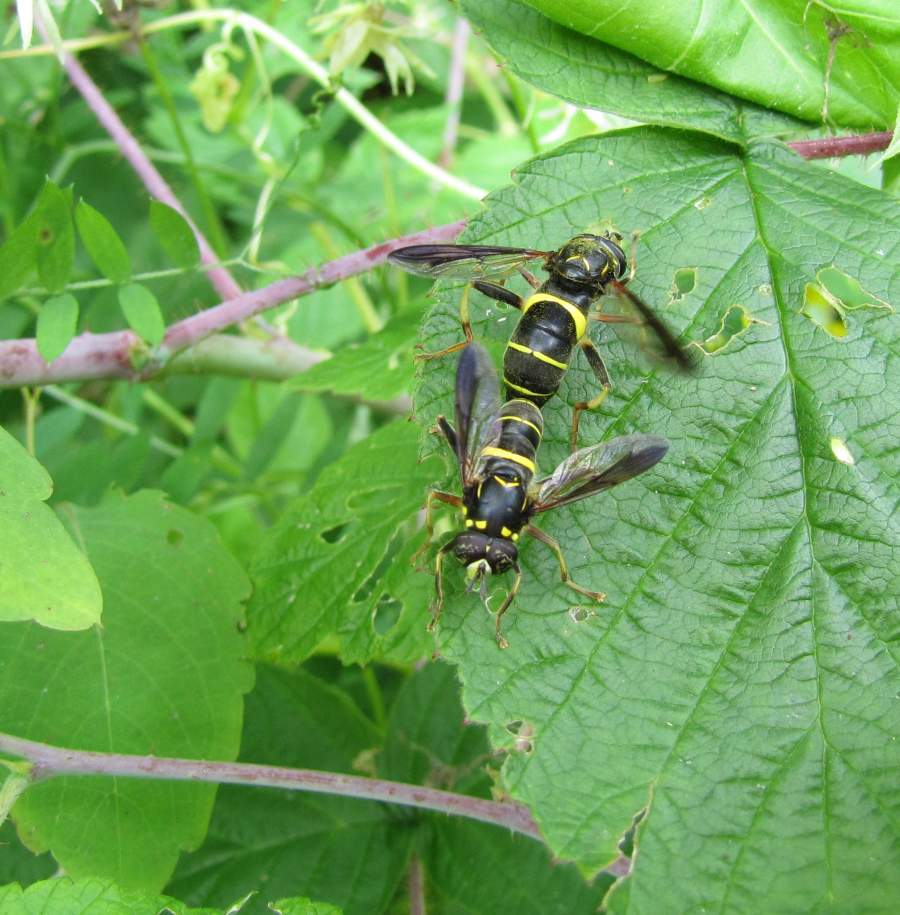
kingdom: Animalia
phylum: Arthropoda
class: Insecta
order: Diptera
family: Syrphidae
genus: Spilomyia
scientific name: Spilomyia sayi
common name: Four-lined hornet fly
